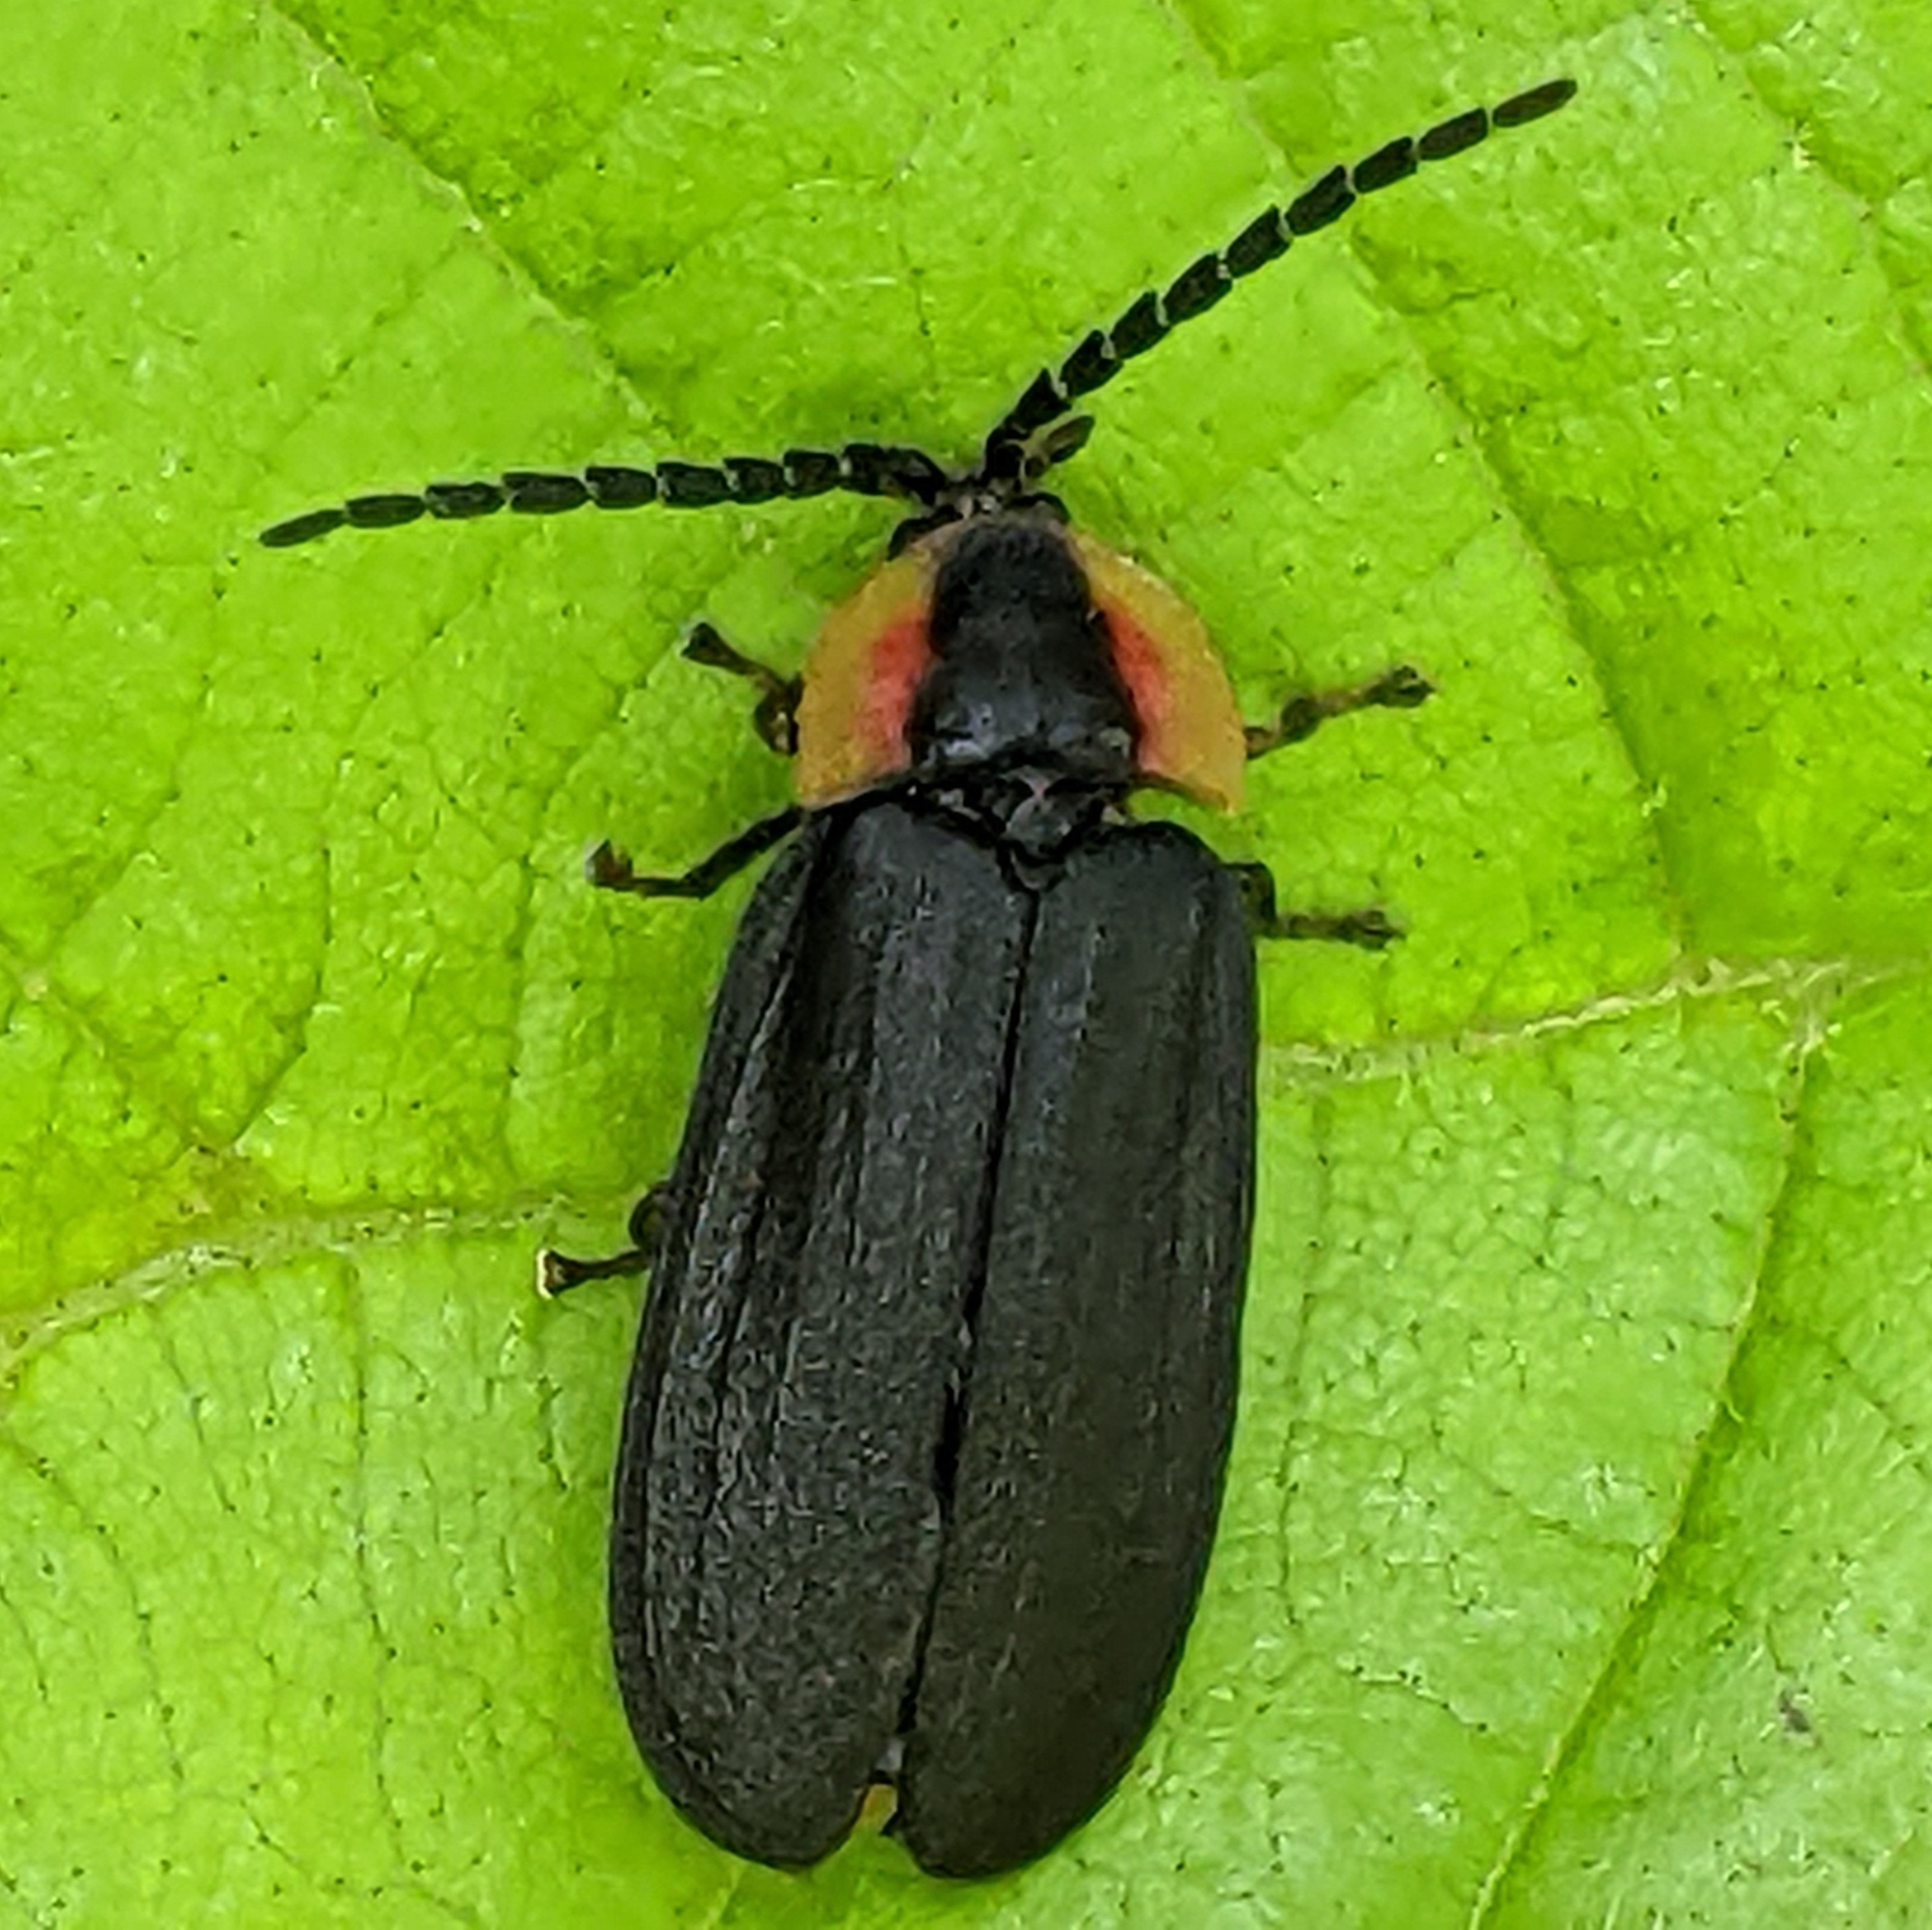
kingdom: Animalia
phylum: Arthropoda
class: Insecta
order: Coleoptera
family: Lampyridae
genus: Lucidota
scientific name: Lucidota atra
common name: Black firefly
